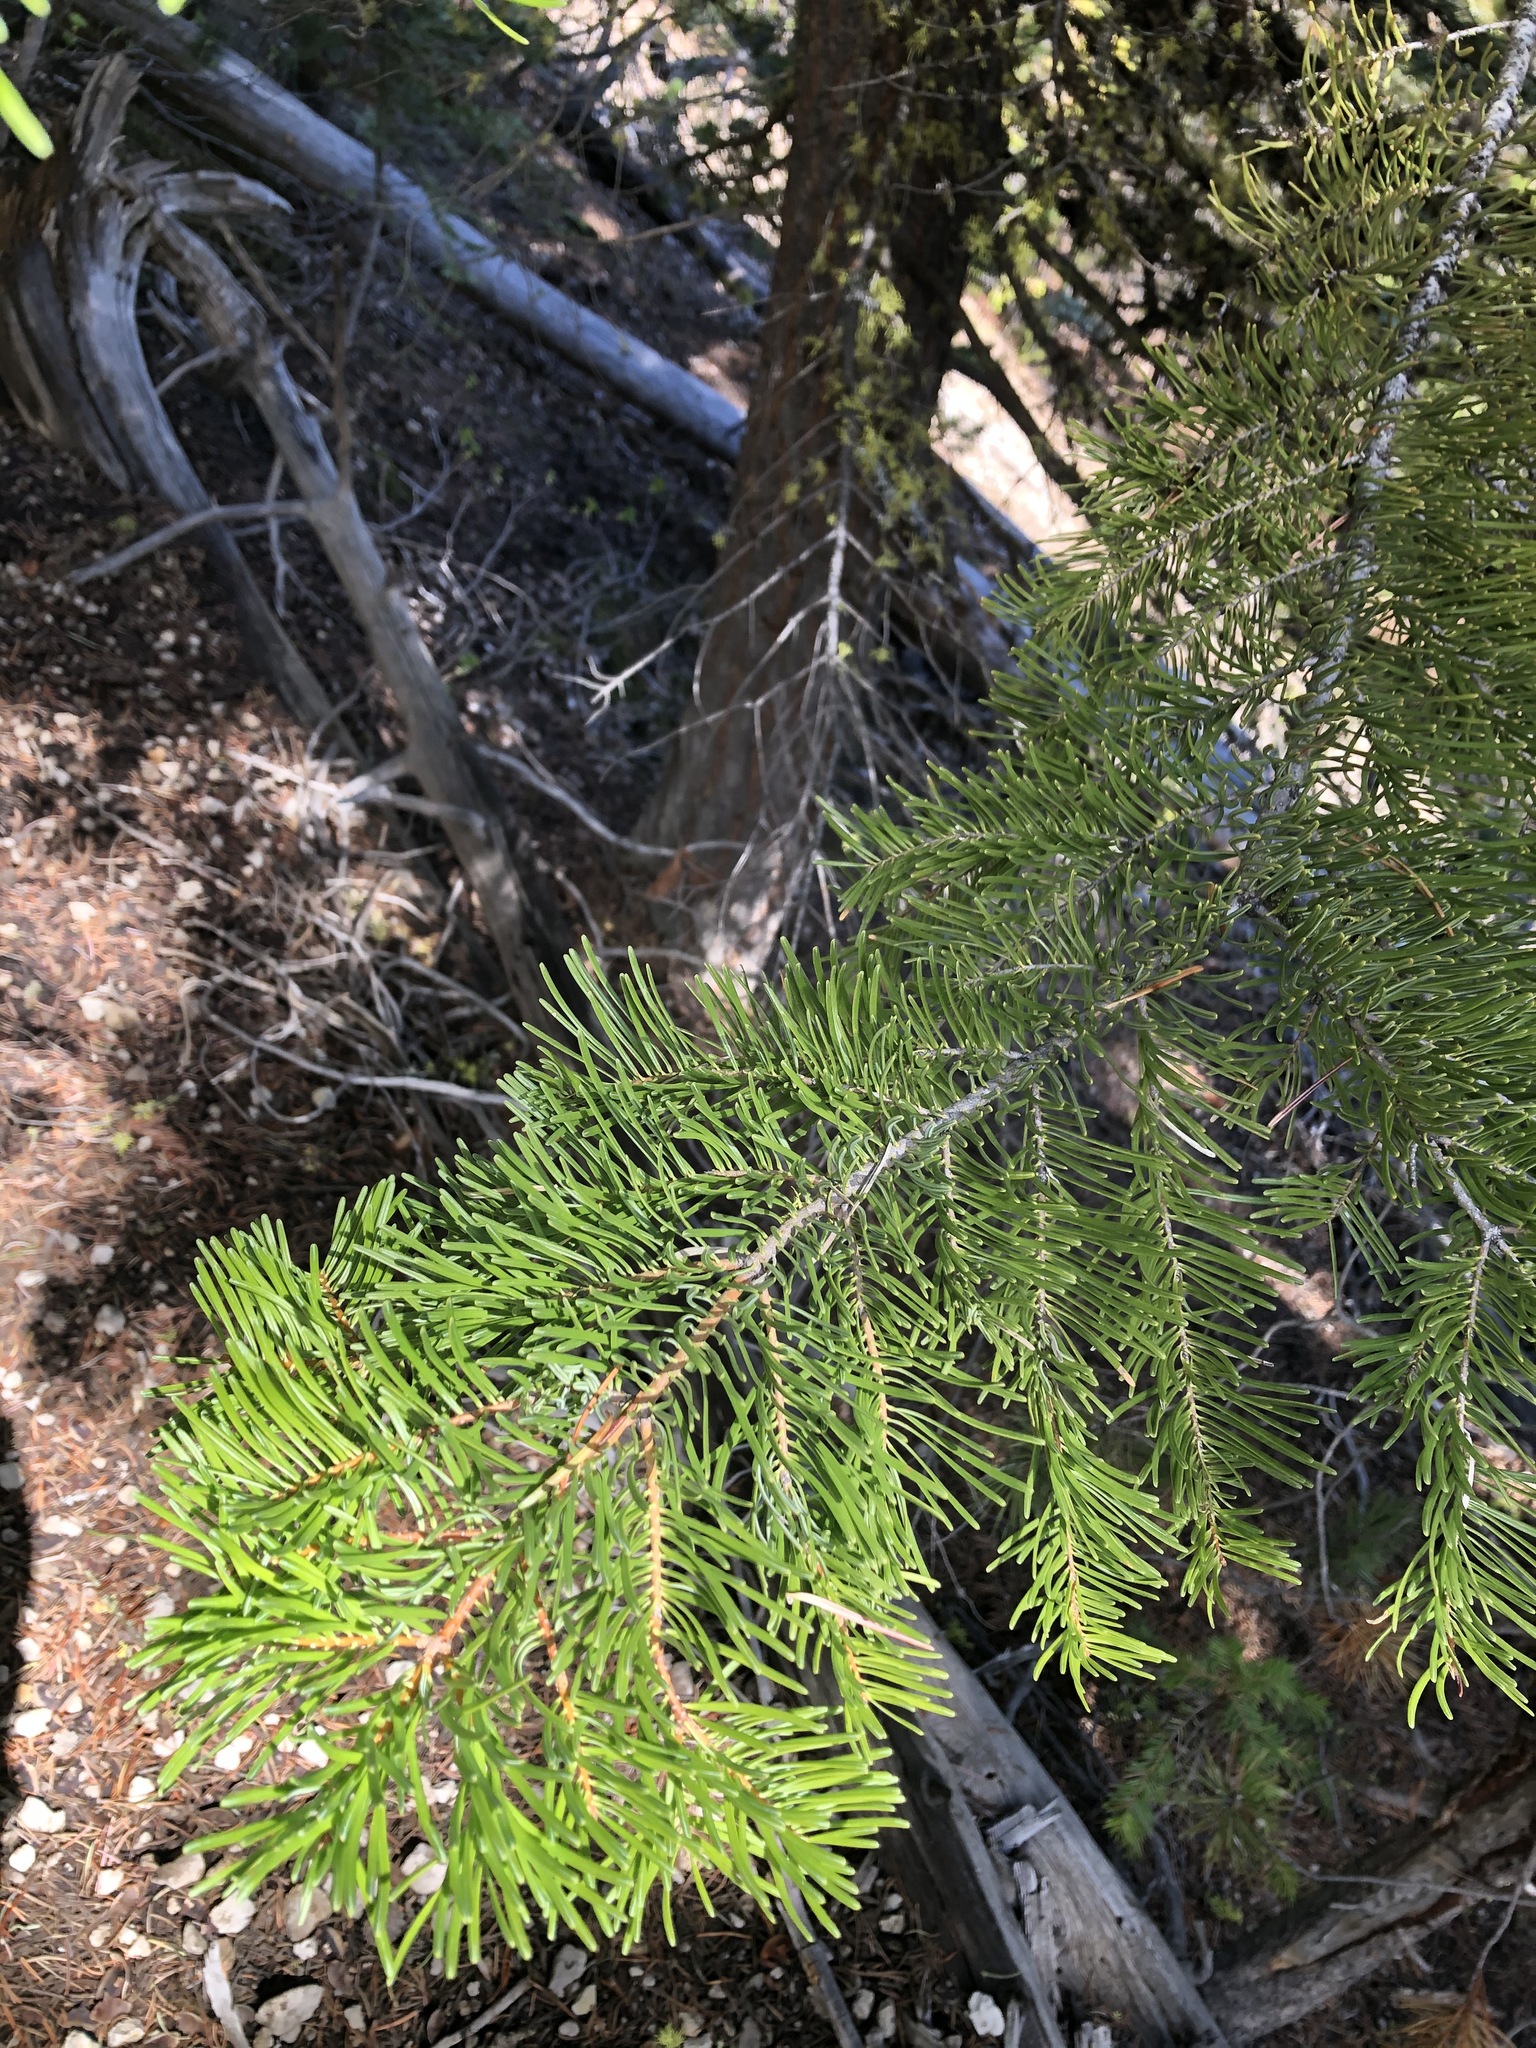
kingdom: Plantae
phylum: Tracheophyta
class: Pinopsida
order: Pinales
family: Pinaceae
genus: Abies
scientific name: Abies concolor
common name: Colorado fir
